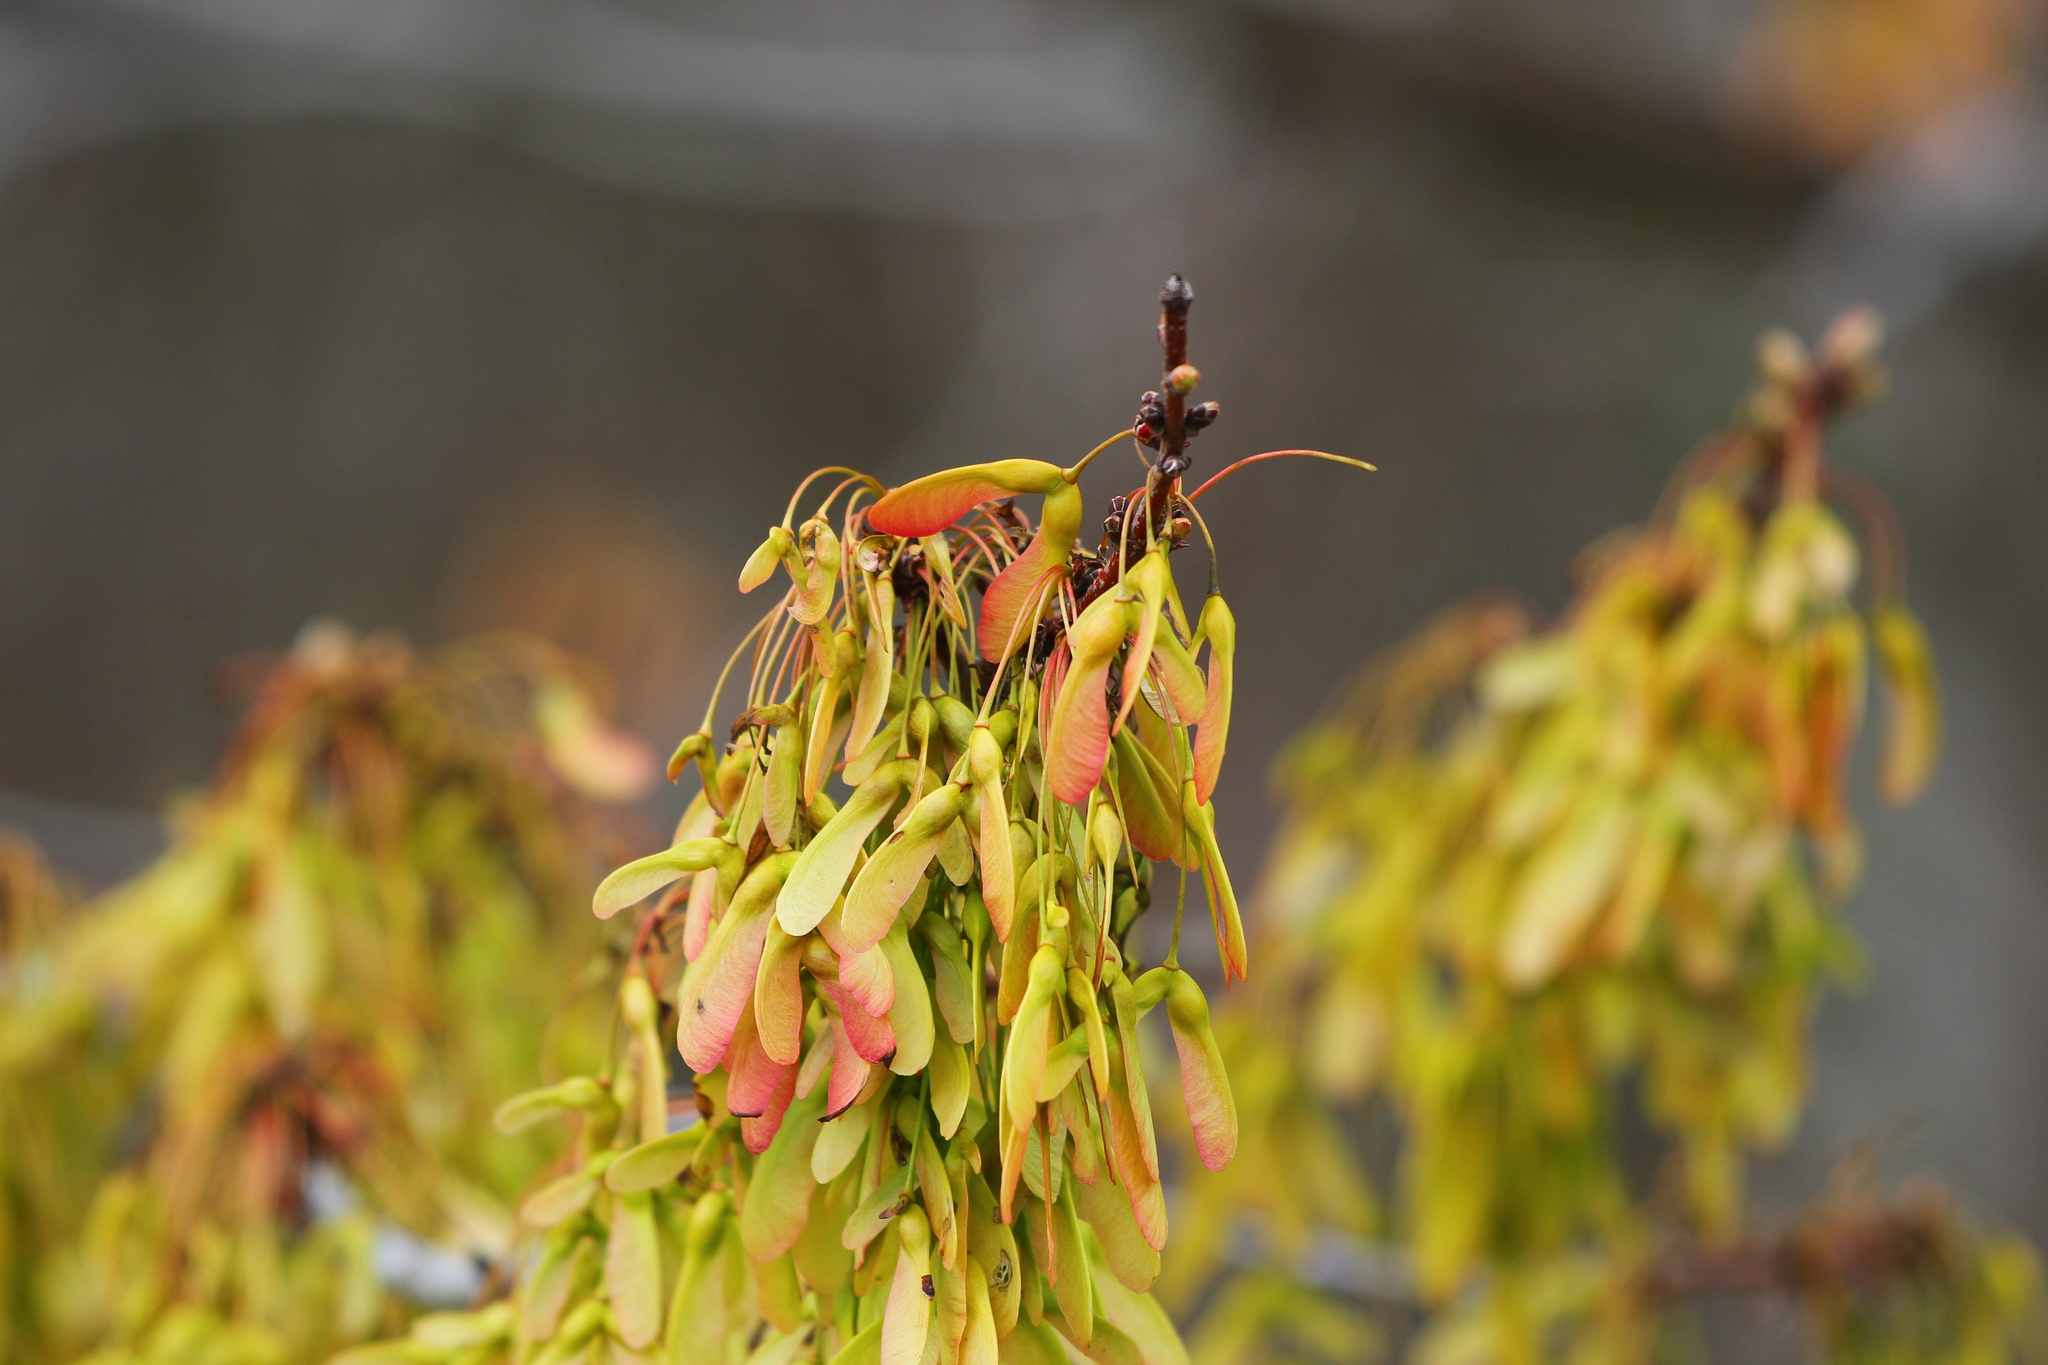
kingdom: Plantae
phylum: Tracheophyta
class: Magnoliopsida
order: Sapindales
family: Sapindaceae
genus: Acer
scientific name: Acer rubrum
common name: Red maple
